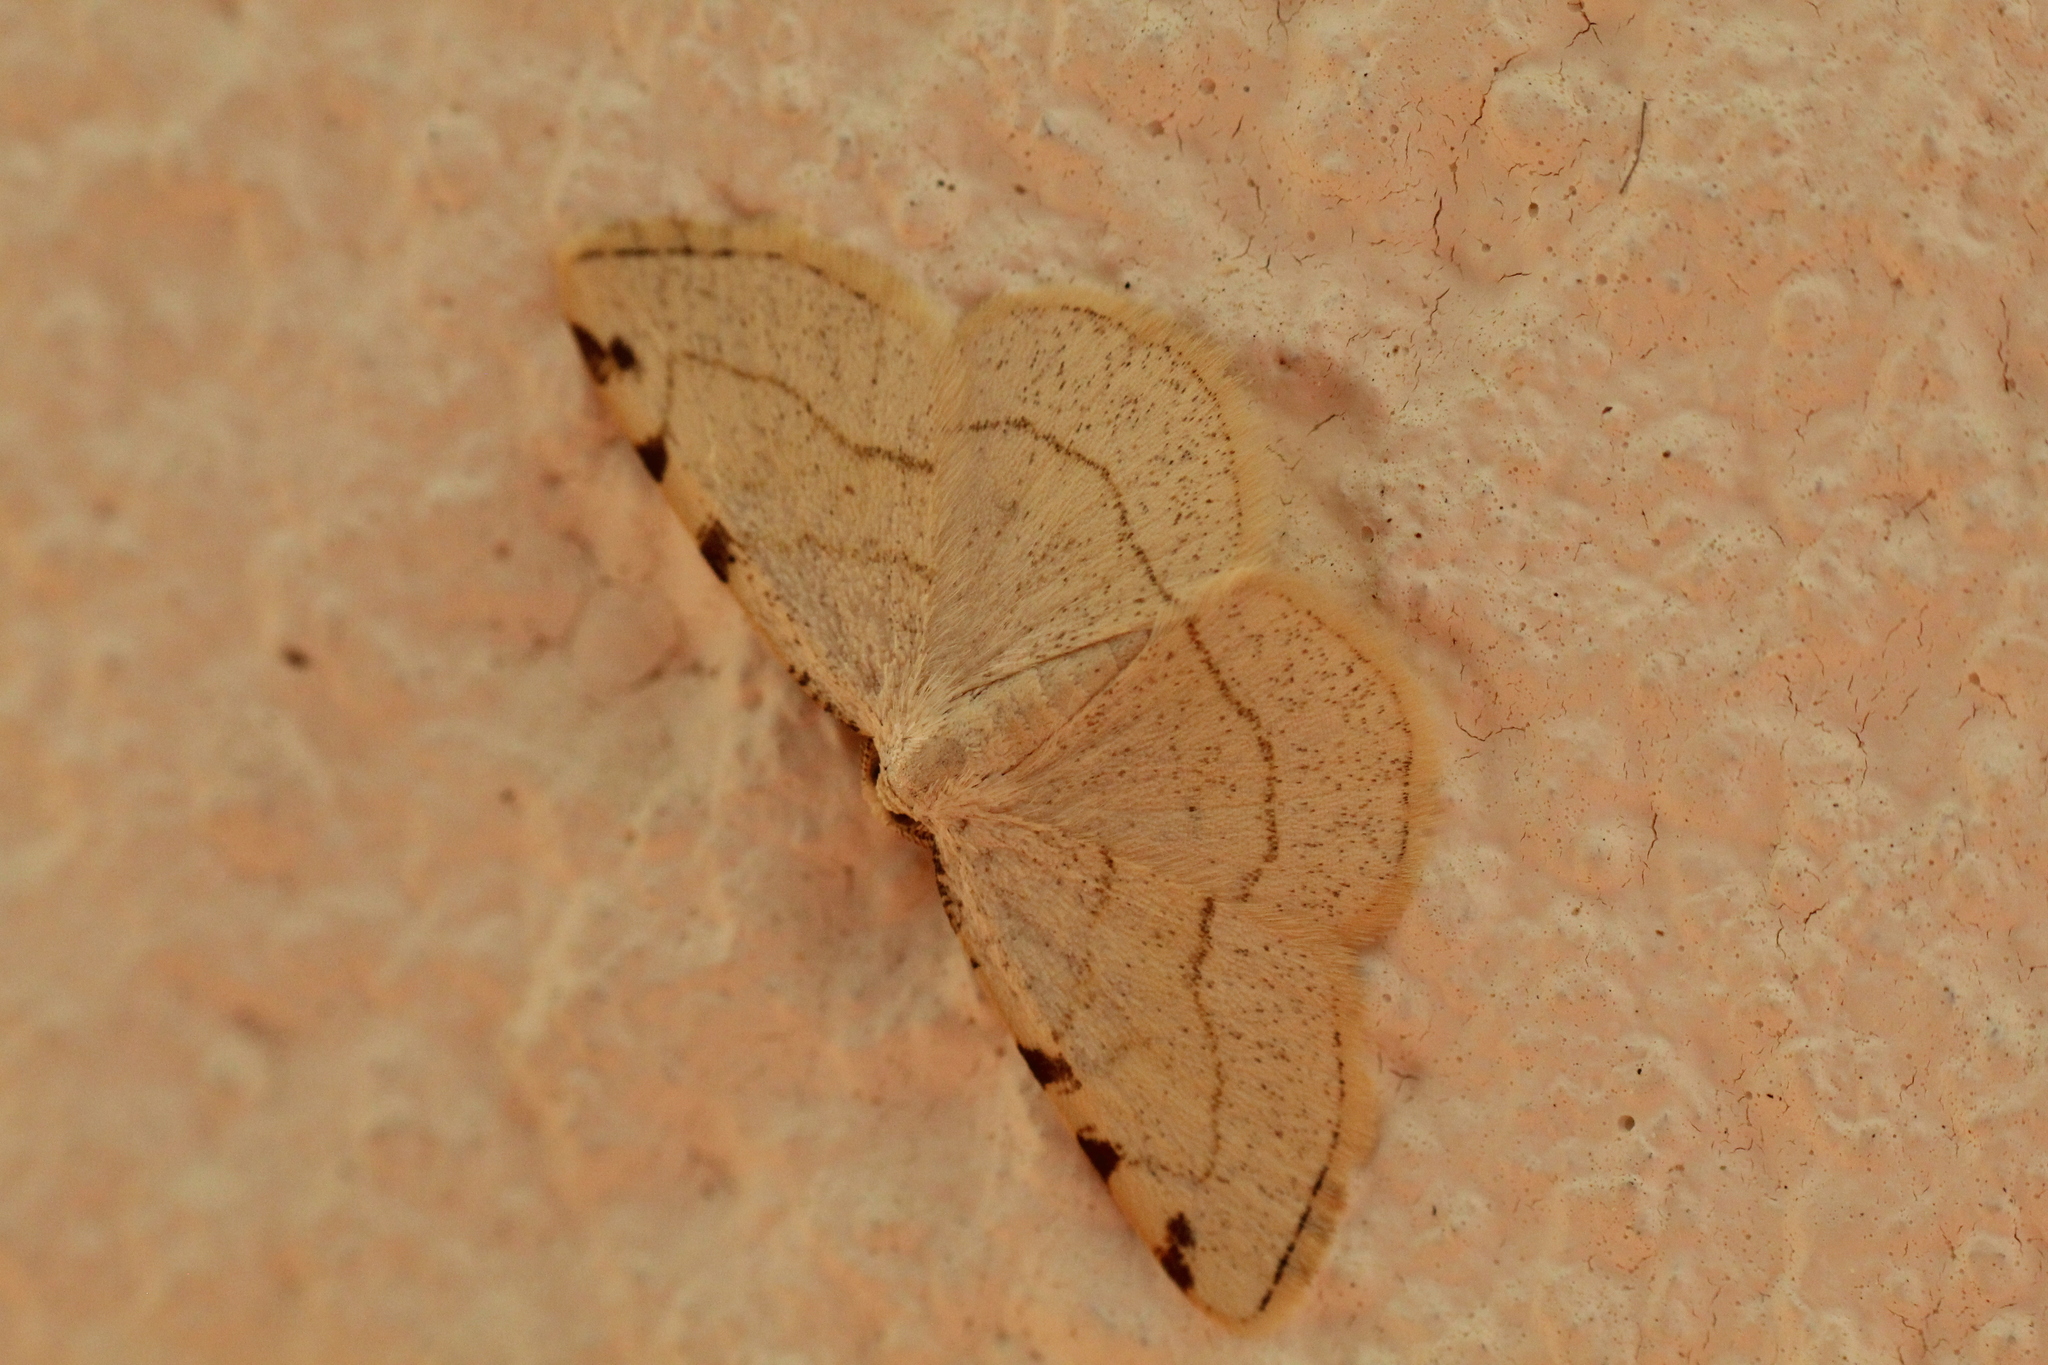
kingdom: Animalia
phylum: Arthropoda
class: Insecta
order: Lepidoptera
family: Geometridae
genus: Stegania
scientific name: Stegania trimaculata
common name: Dorset cream wave
